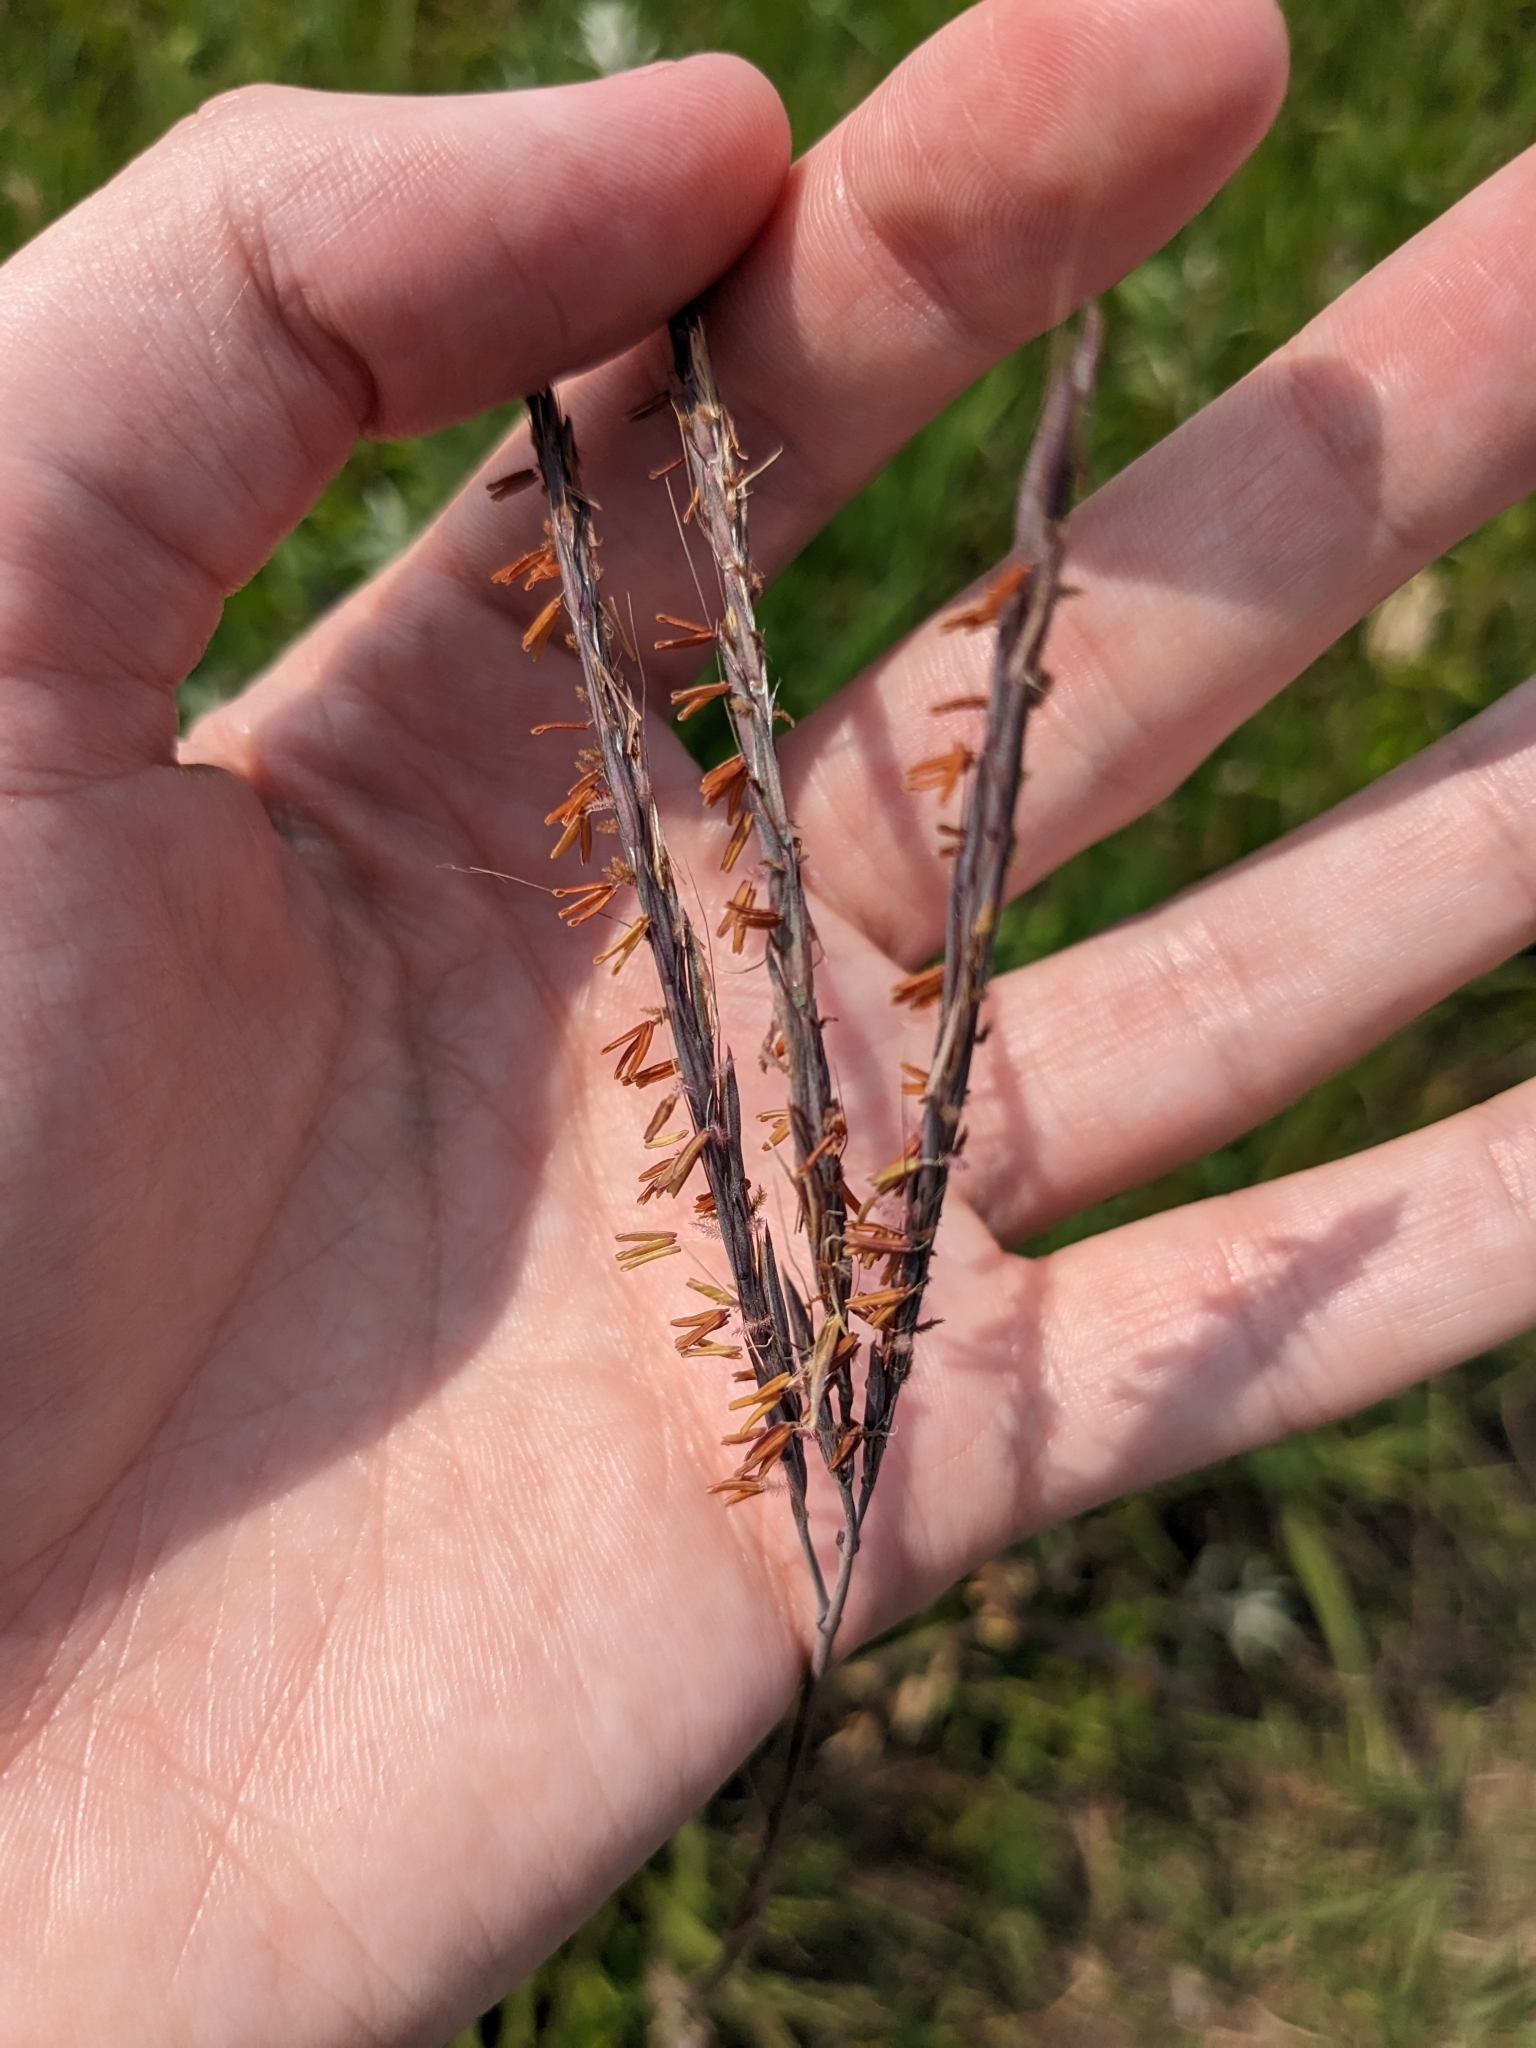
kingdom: Plantae
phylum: Tracheophyta
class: Liliopsida
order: Poales
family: Poaceae
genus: Andropogon
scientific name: Andropogon gerardi
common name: Big bluestem
